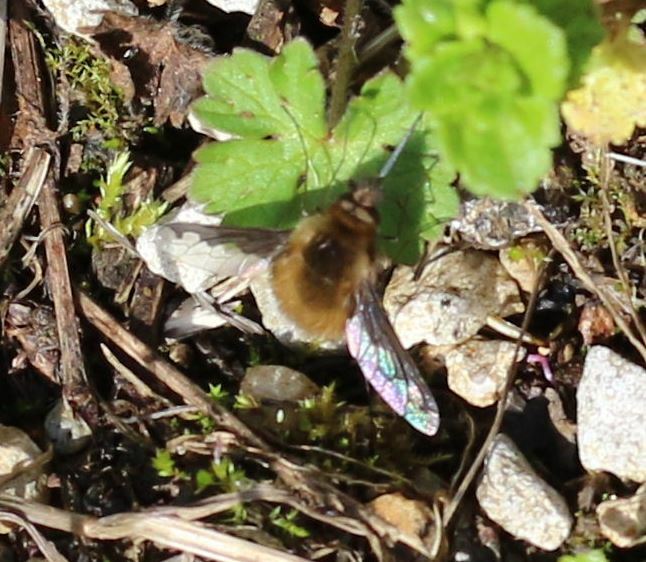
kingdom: Animalia
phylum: Arthropoda
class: Insecta
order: Diptera
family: Bombyliidae
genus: Bombylius
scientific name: Bombylius major
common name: Bee fly
